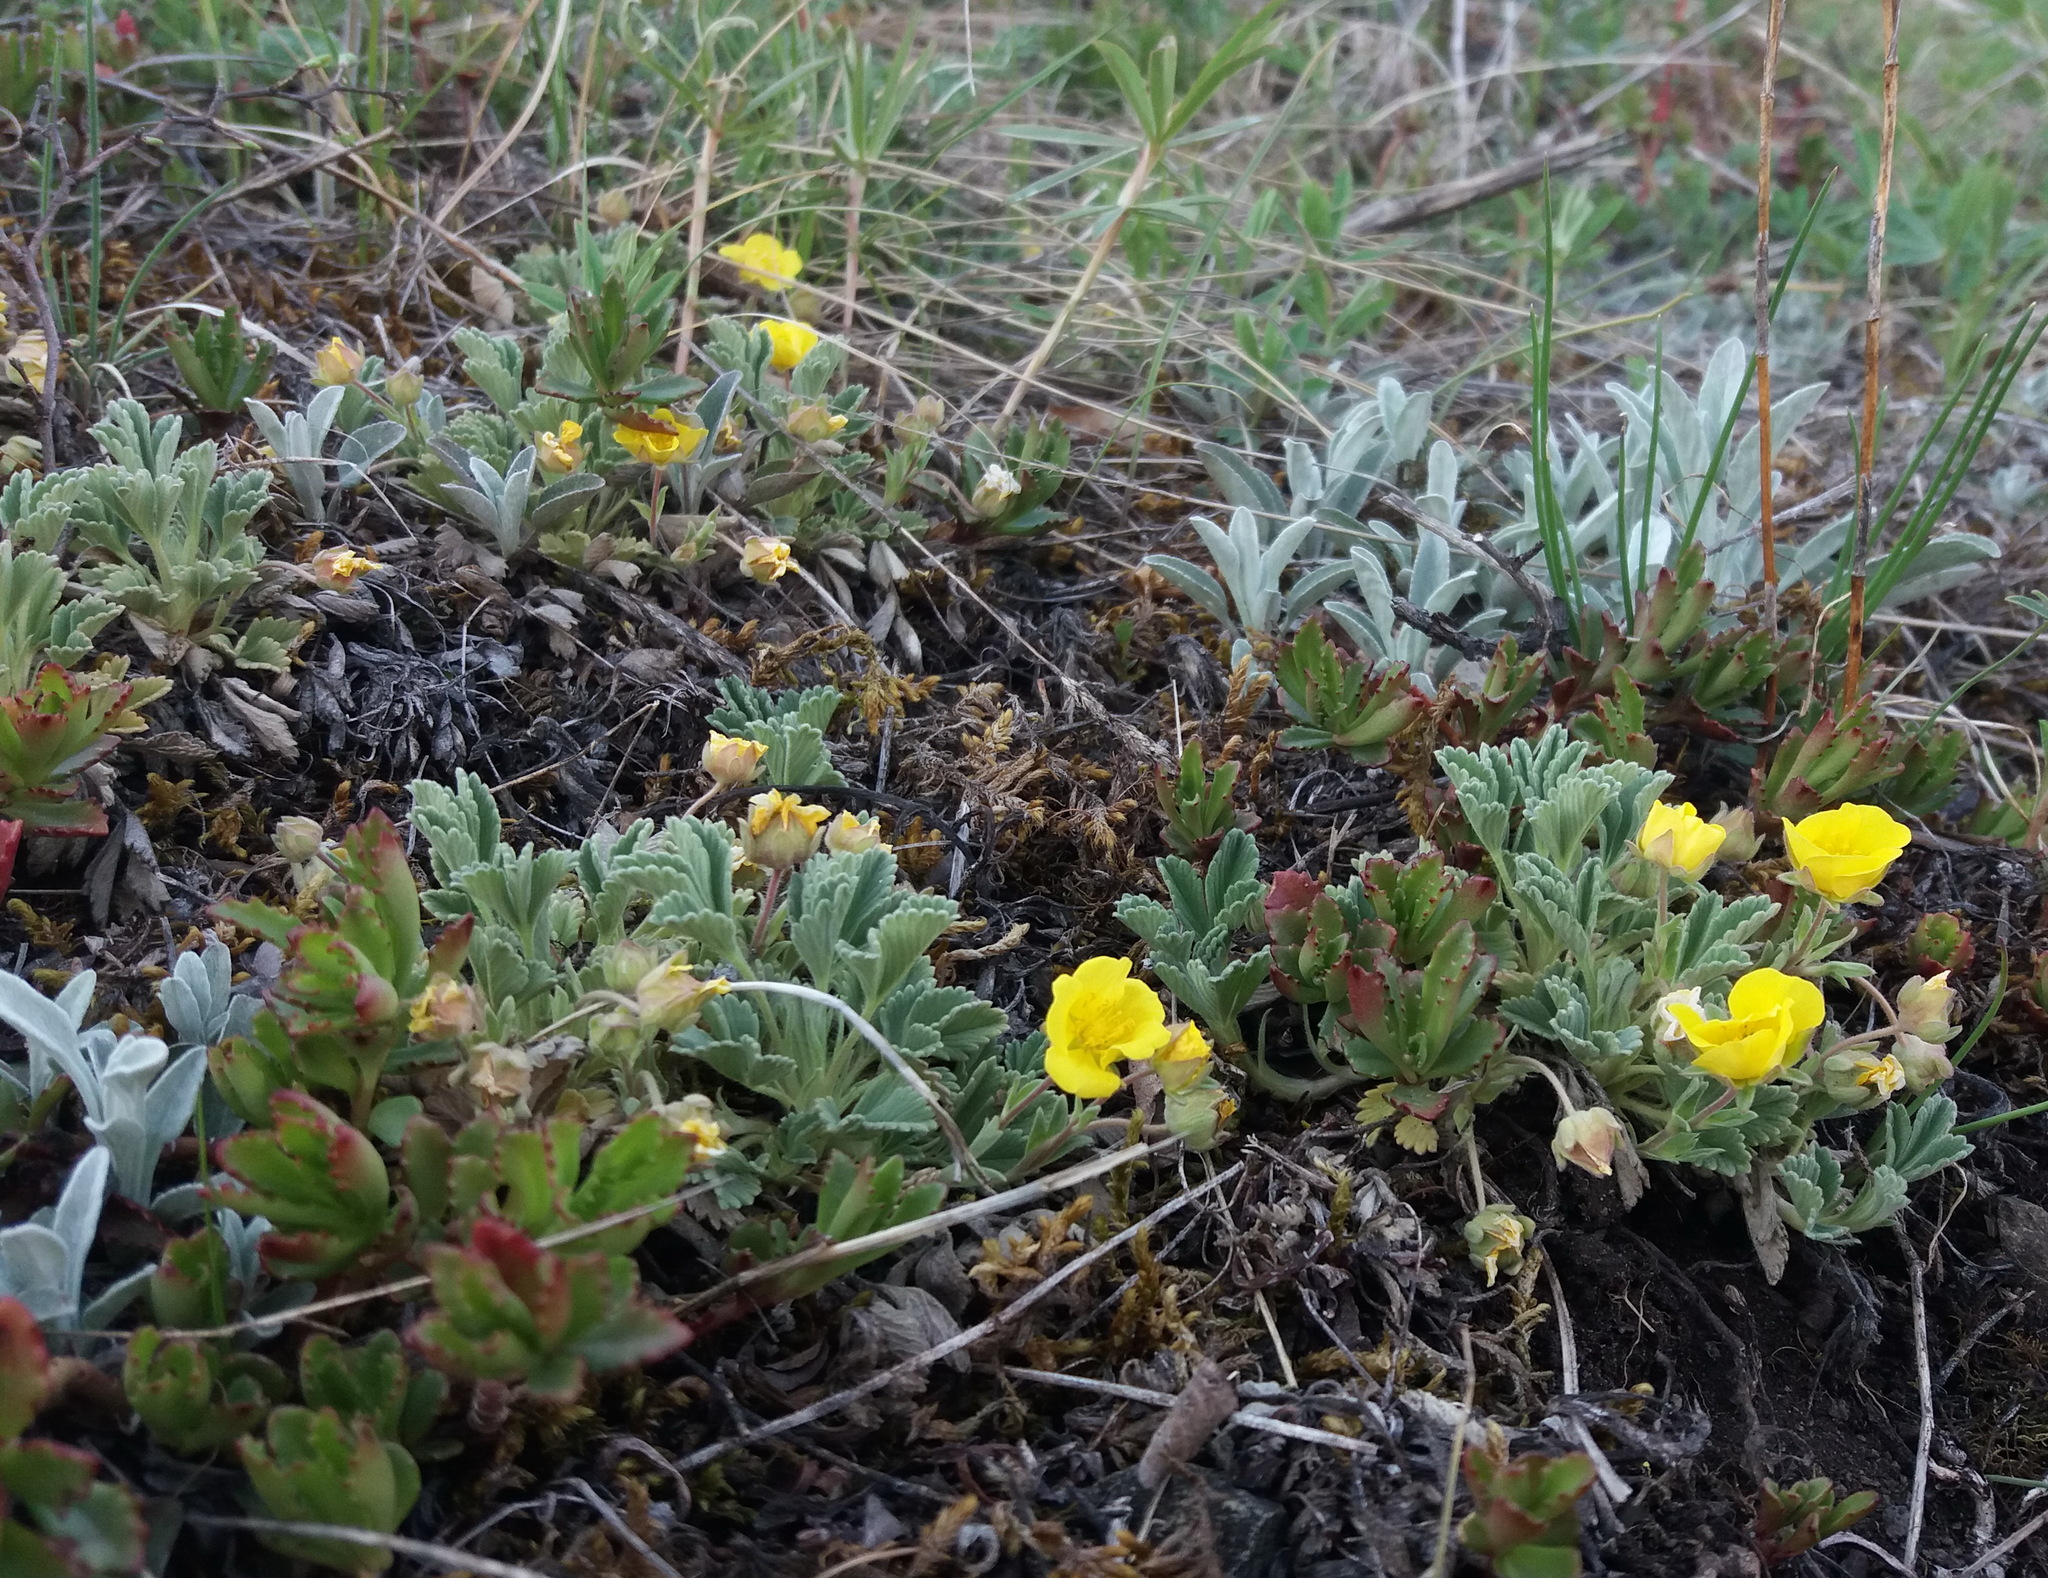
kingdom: Plantae
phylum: Tracheophyta
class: Magnoliopsida
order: Rosales
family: Rosaceae
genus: Potentilla
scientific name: Potentilla acaulis
